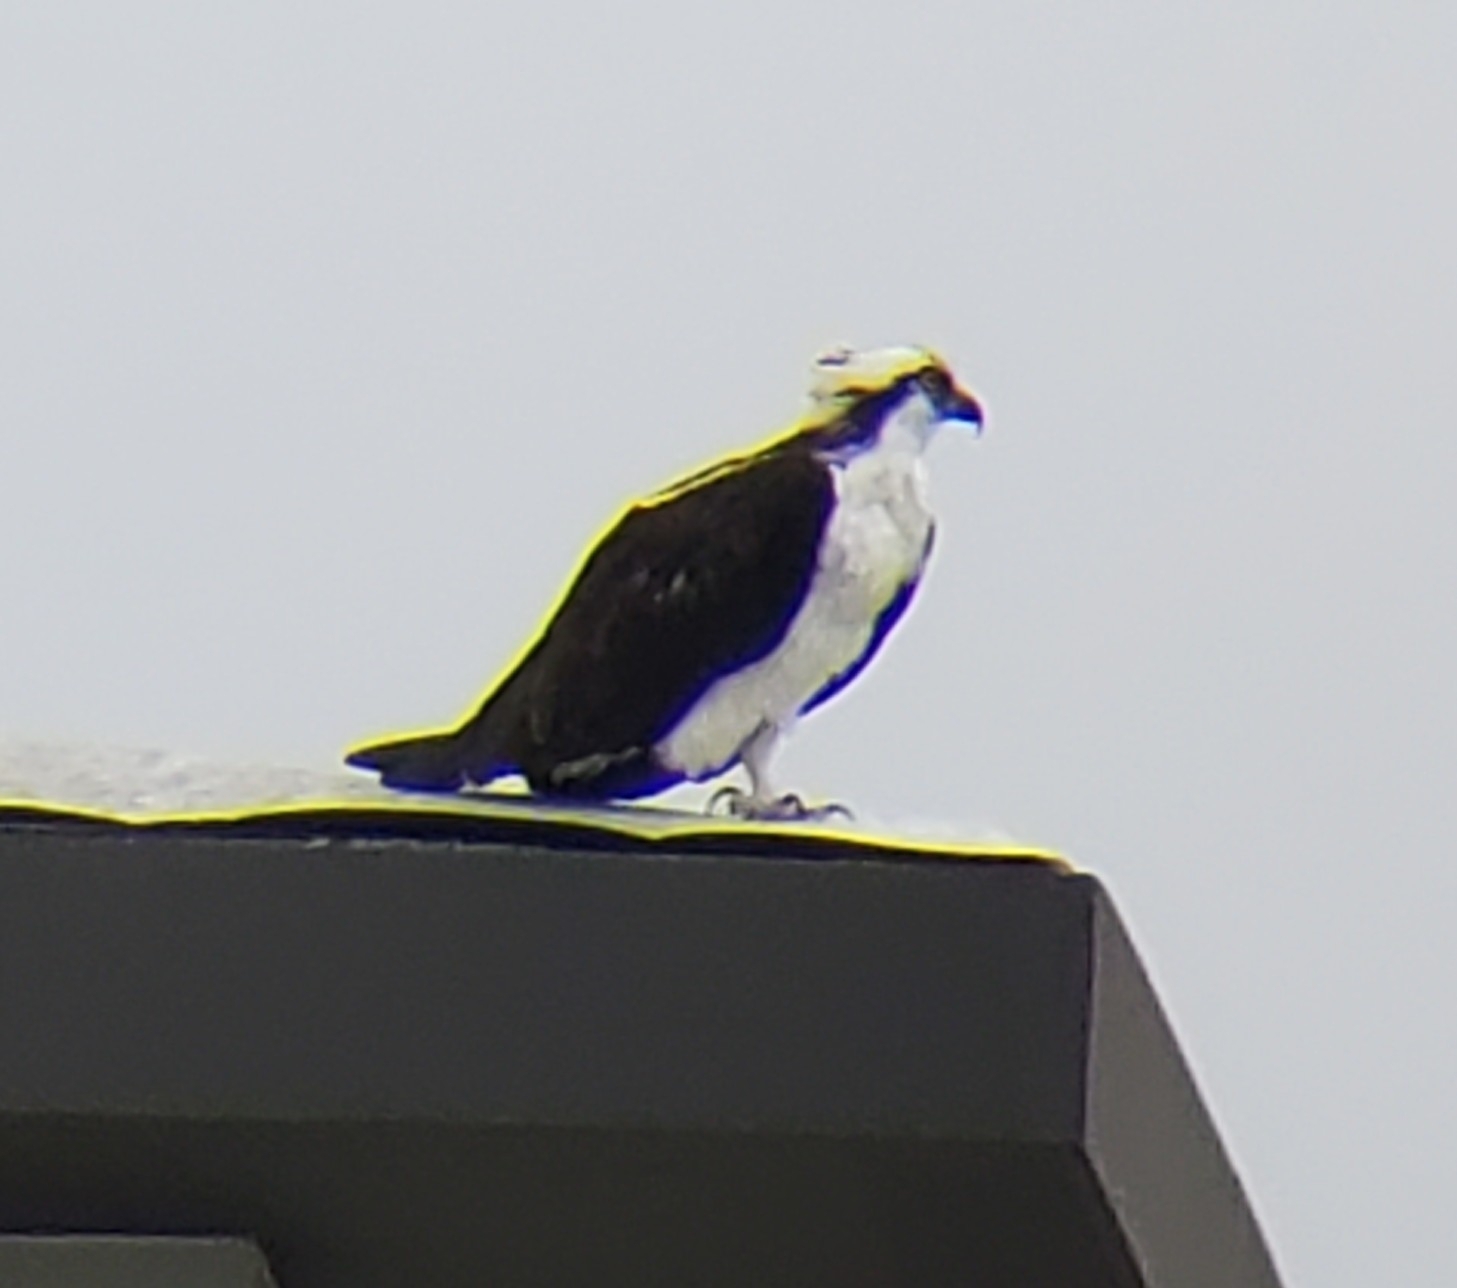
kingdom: Animalia
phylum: Chordata
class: Aves
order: Accipitriformes
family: Pandionidae
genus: Pandion
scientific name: Pandion haliaetus
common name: Osprey
